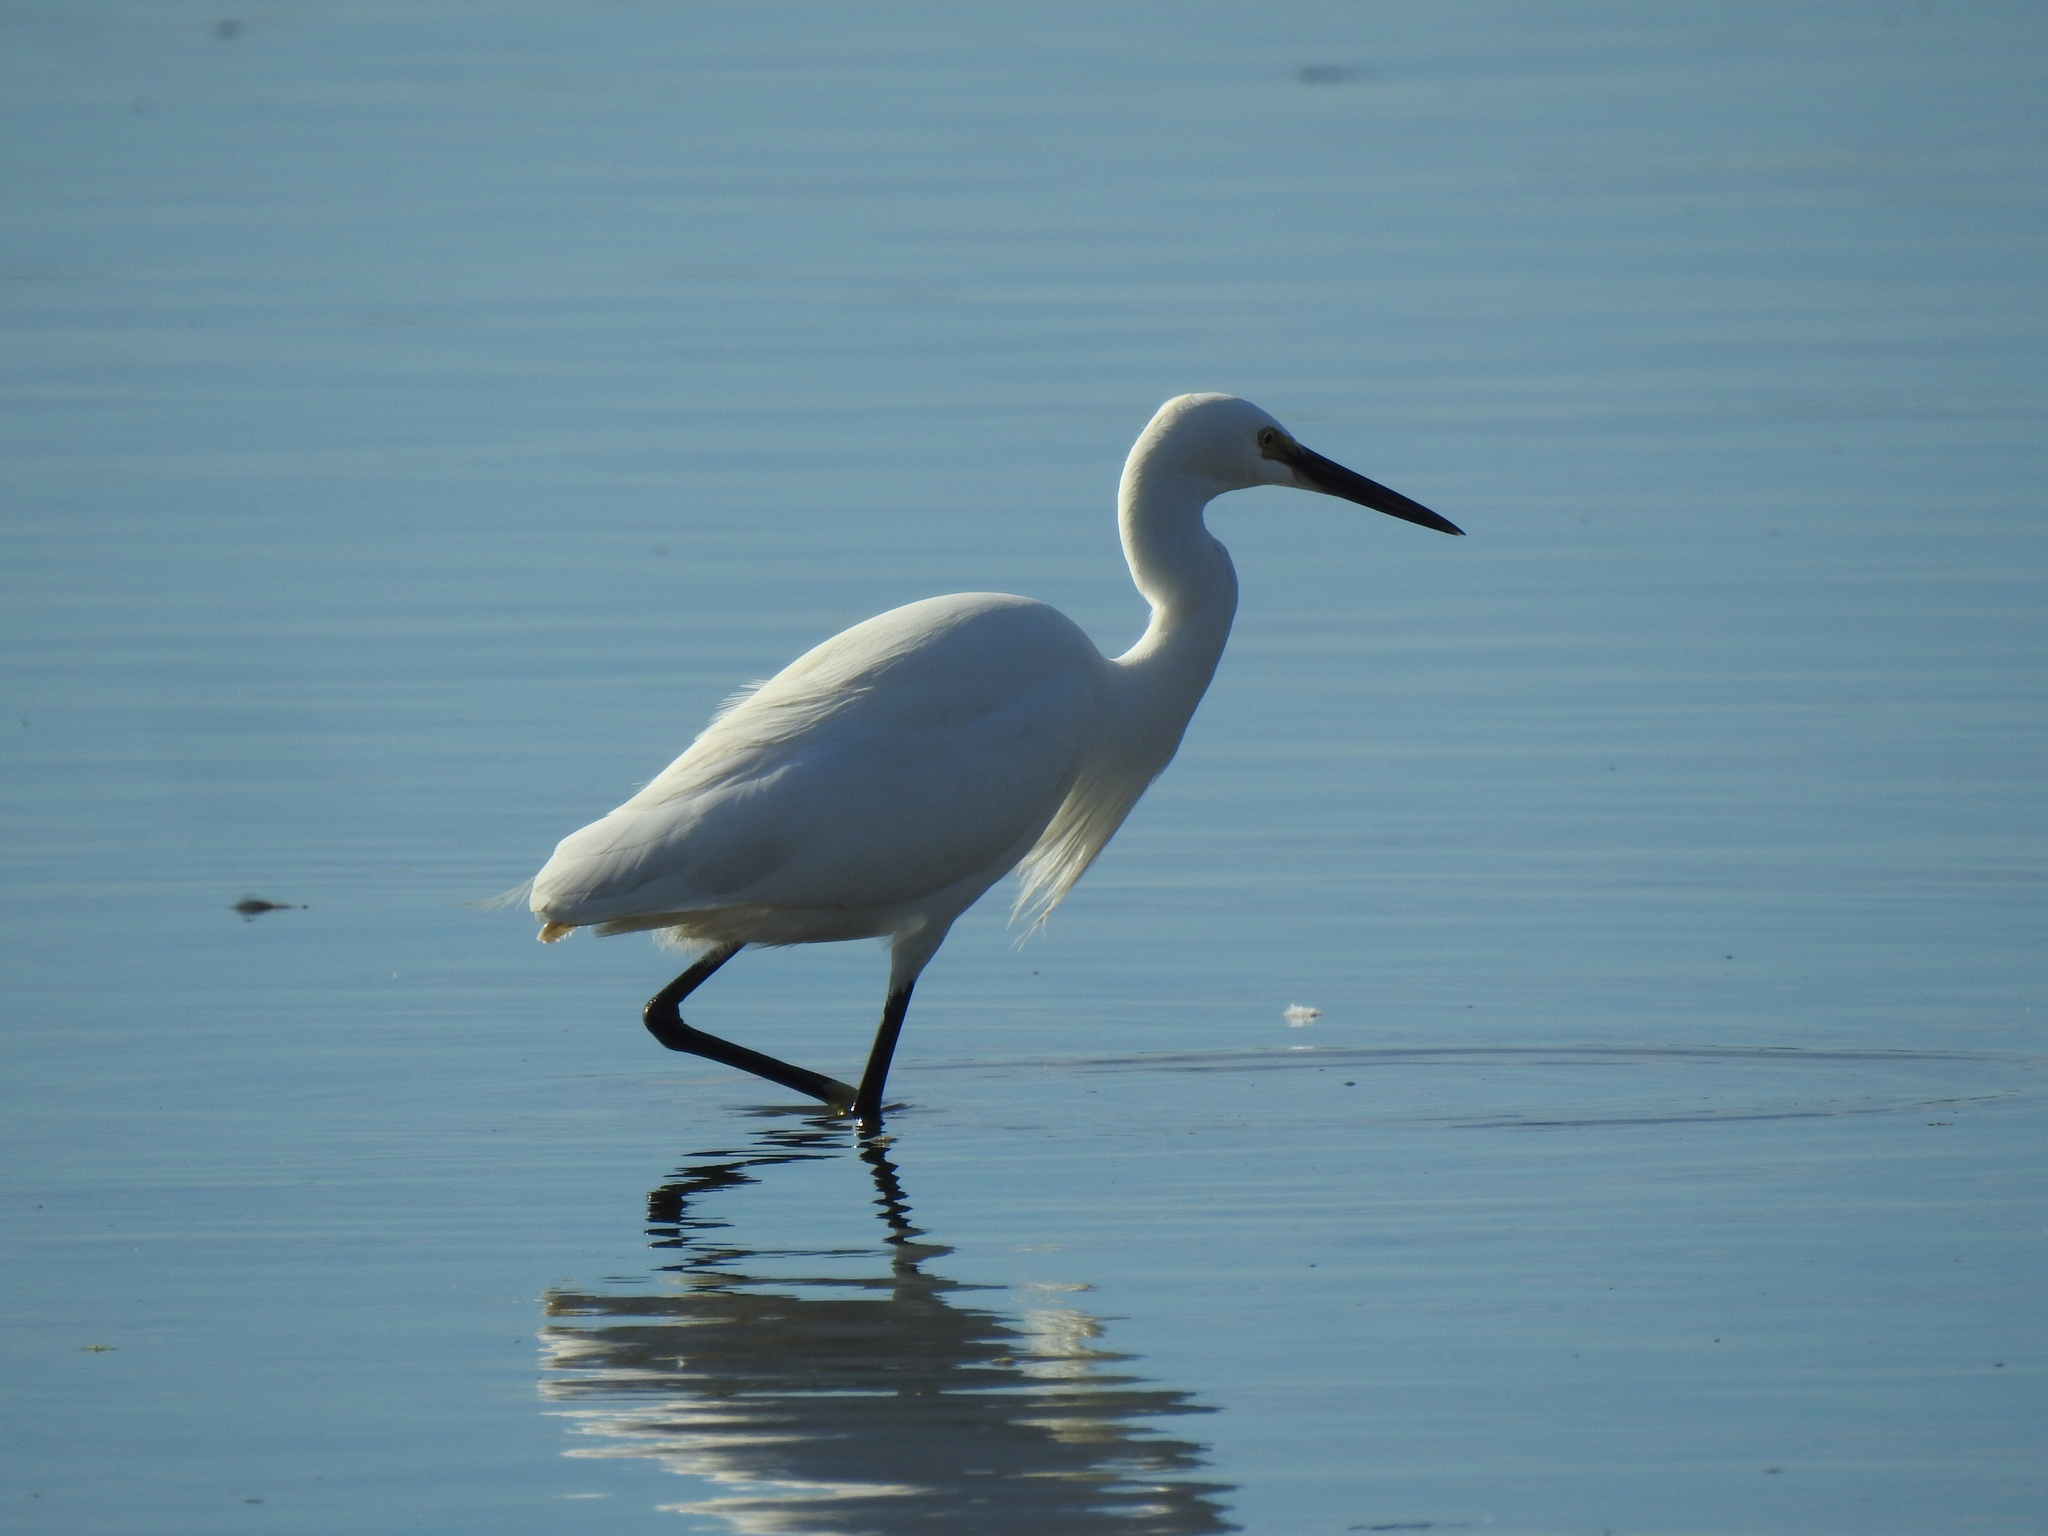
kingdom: Animalia
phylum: Chordata
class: Aves
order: Pelecaniformes
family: Ardeidae
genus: Egretta
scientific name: Egretta garzetta
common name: Little egret
